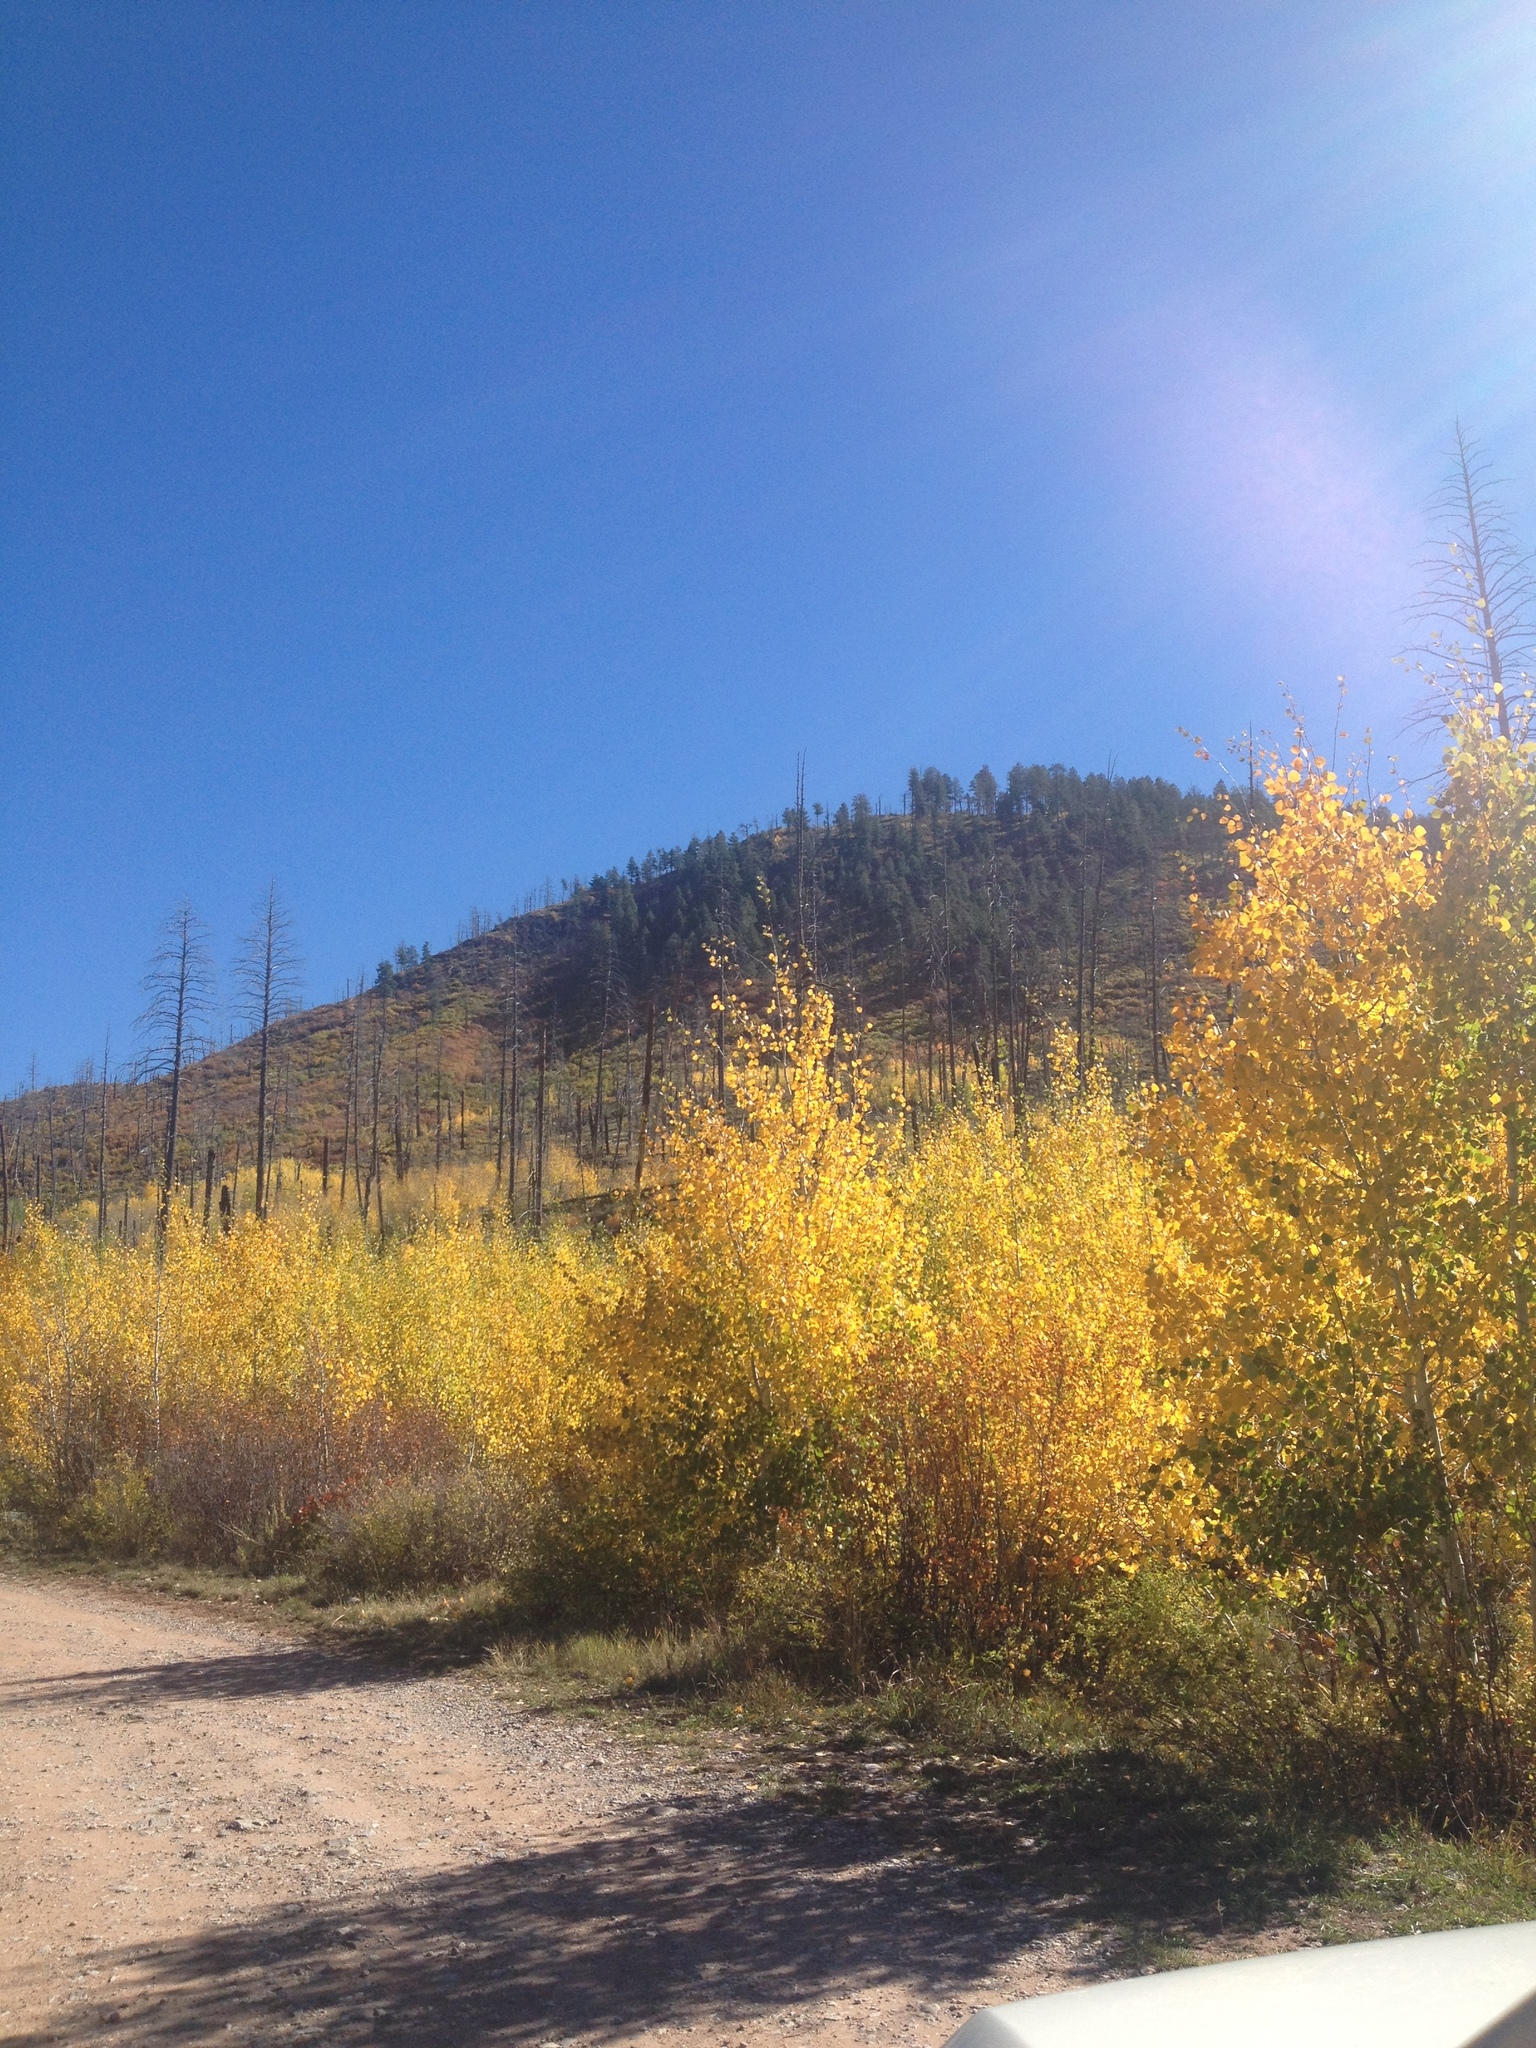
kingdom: Plantae
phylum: Tracheophyta
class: Magnoliopsida
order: Malpighiales
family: Salicaceae
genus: Populus
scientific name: Populus tremuloides
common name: Quaking aspen
